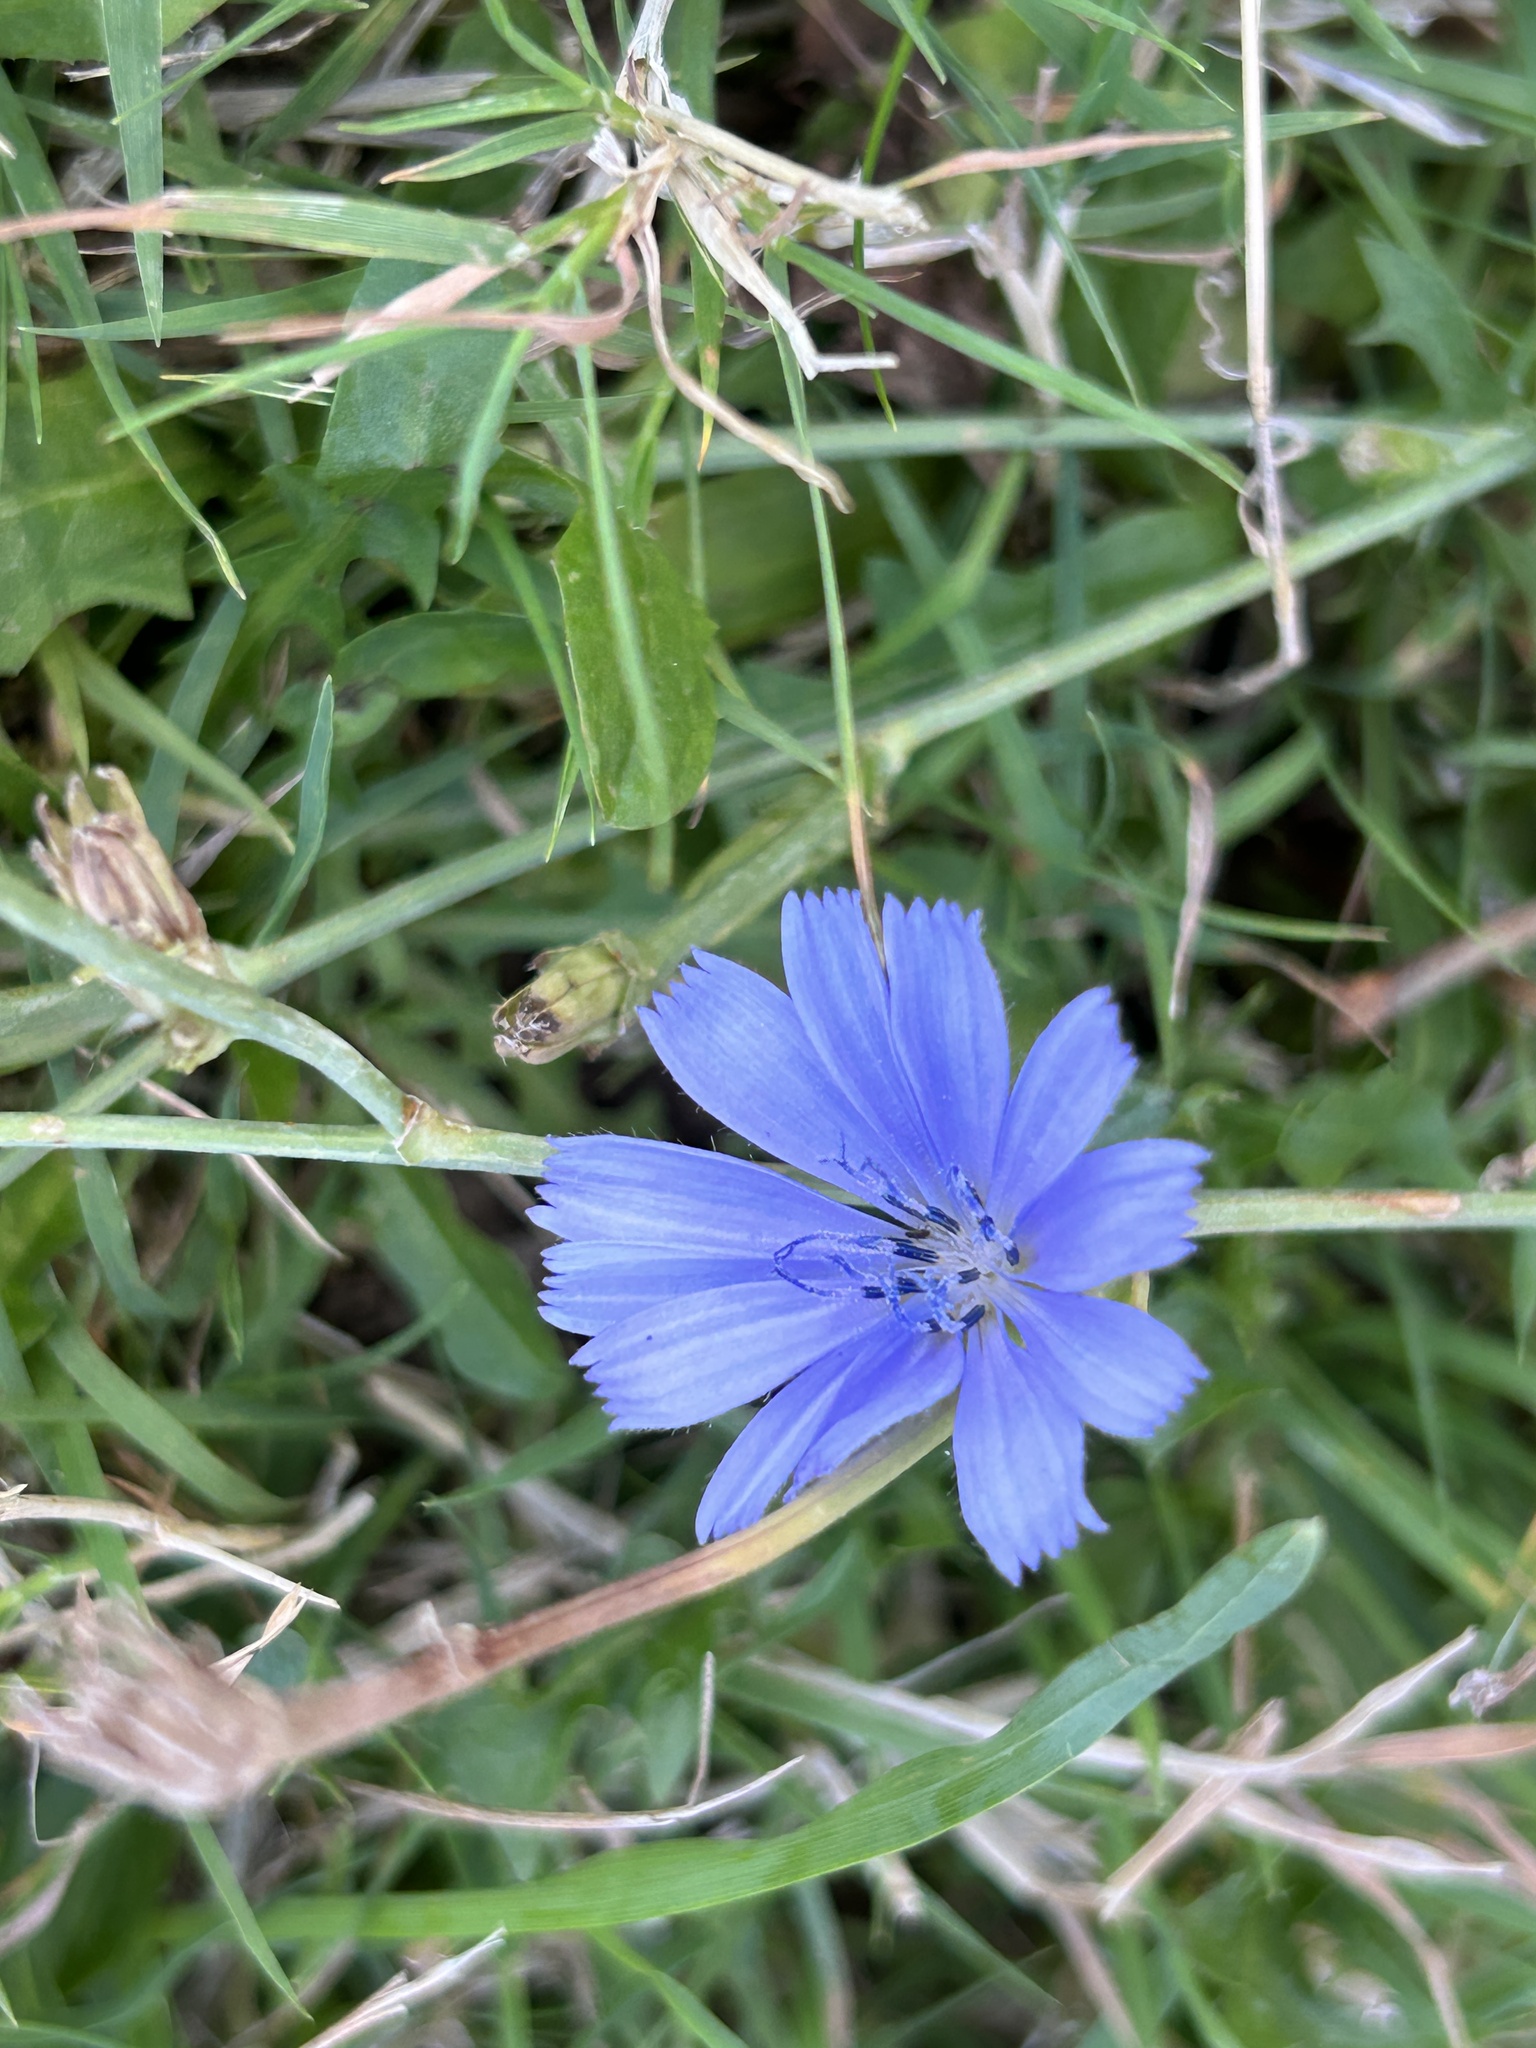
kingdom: Plantae
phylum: Tracheophyta
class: Magnoliopsida
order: Asterales
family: Asteraceae
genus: Cichorium
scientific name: Cichorium intybus
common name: Chicory
